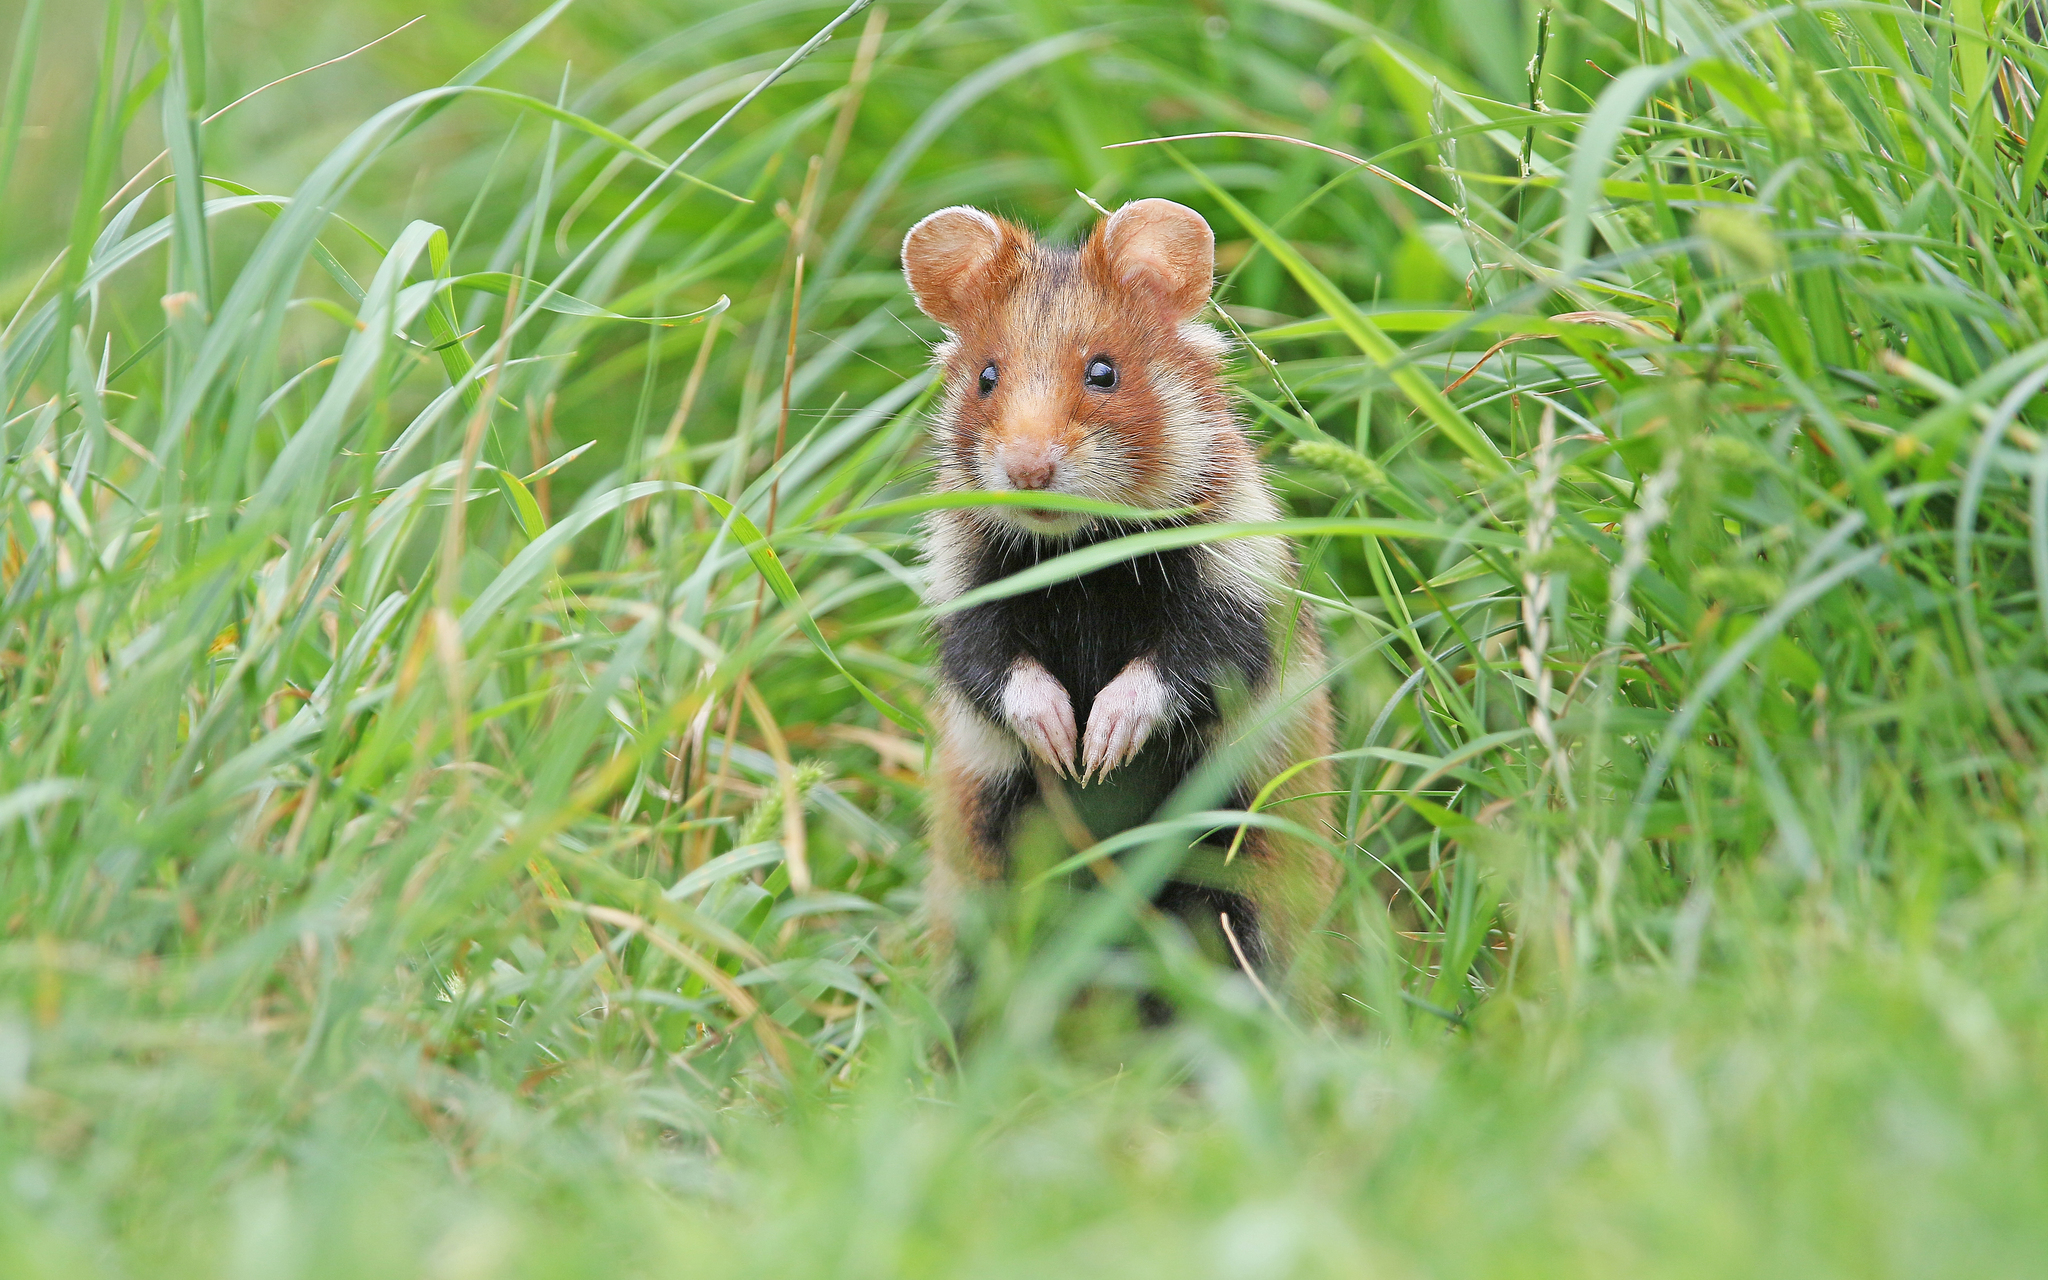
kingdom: Animalia
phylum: Chordata
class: Mammalia
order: Rodentia
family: Cricetidae
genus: Cricetus
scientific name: Cricetus cricetus
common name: Common hamster
